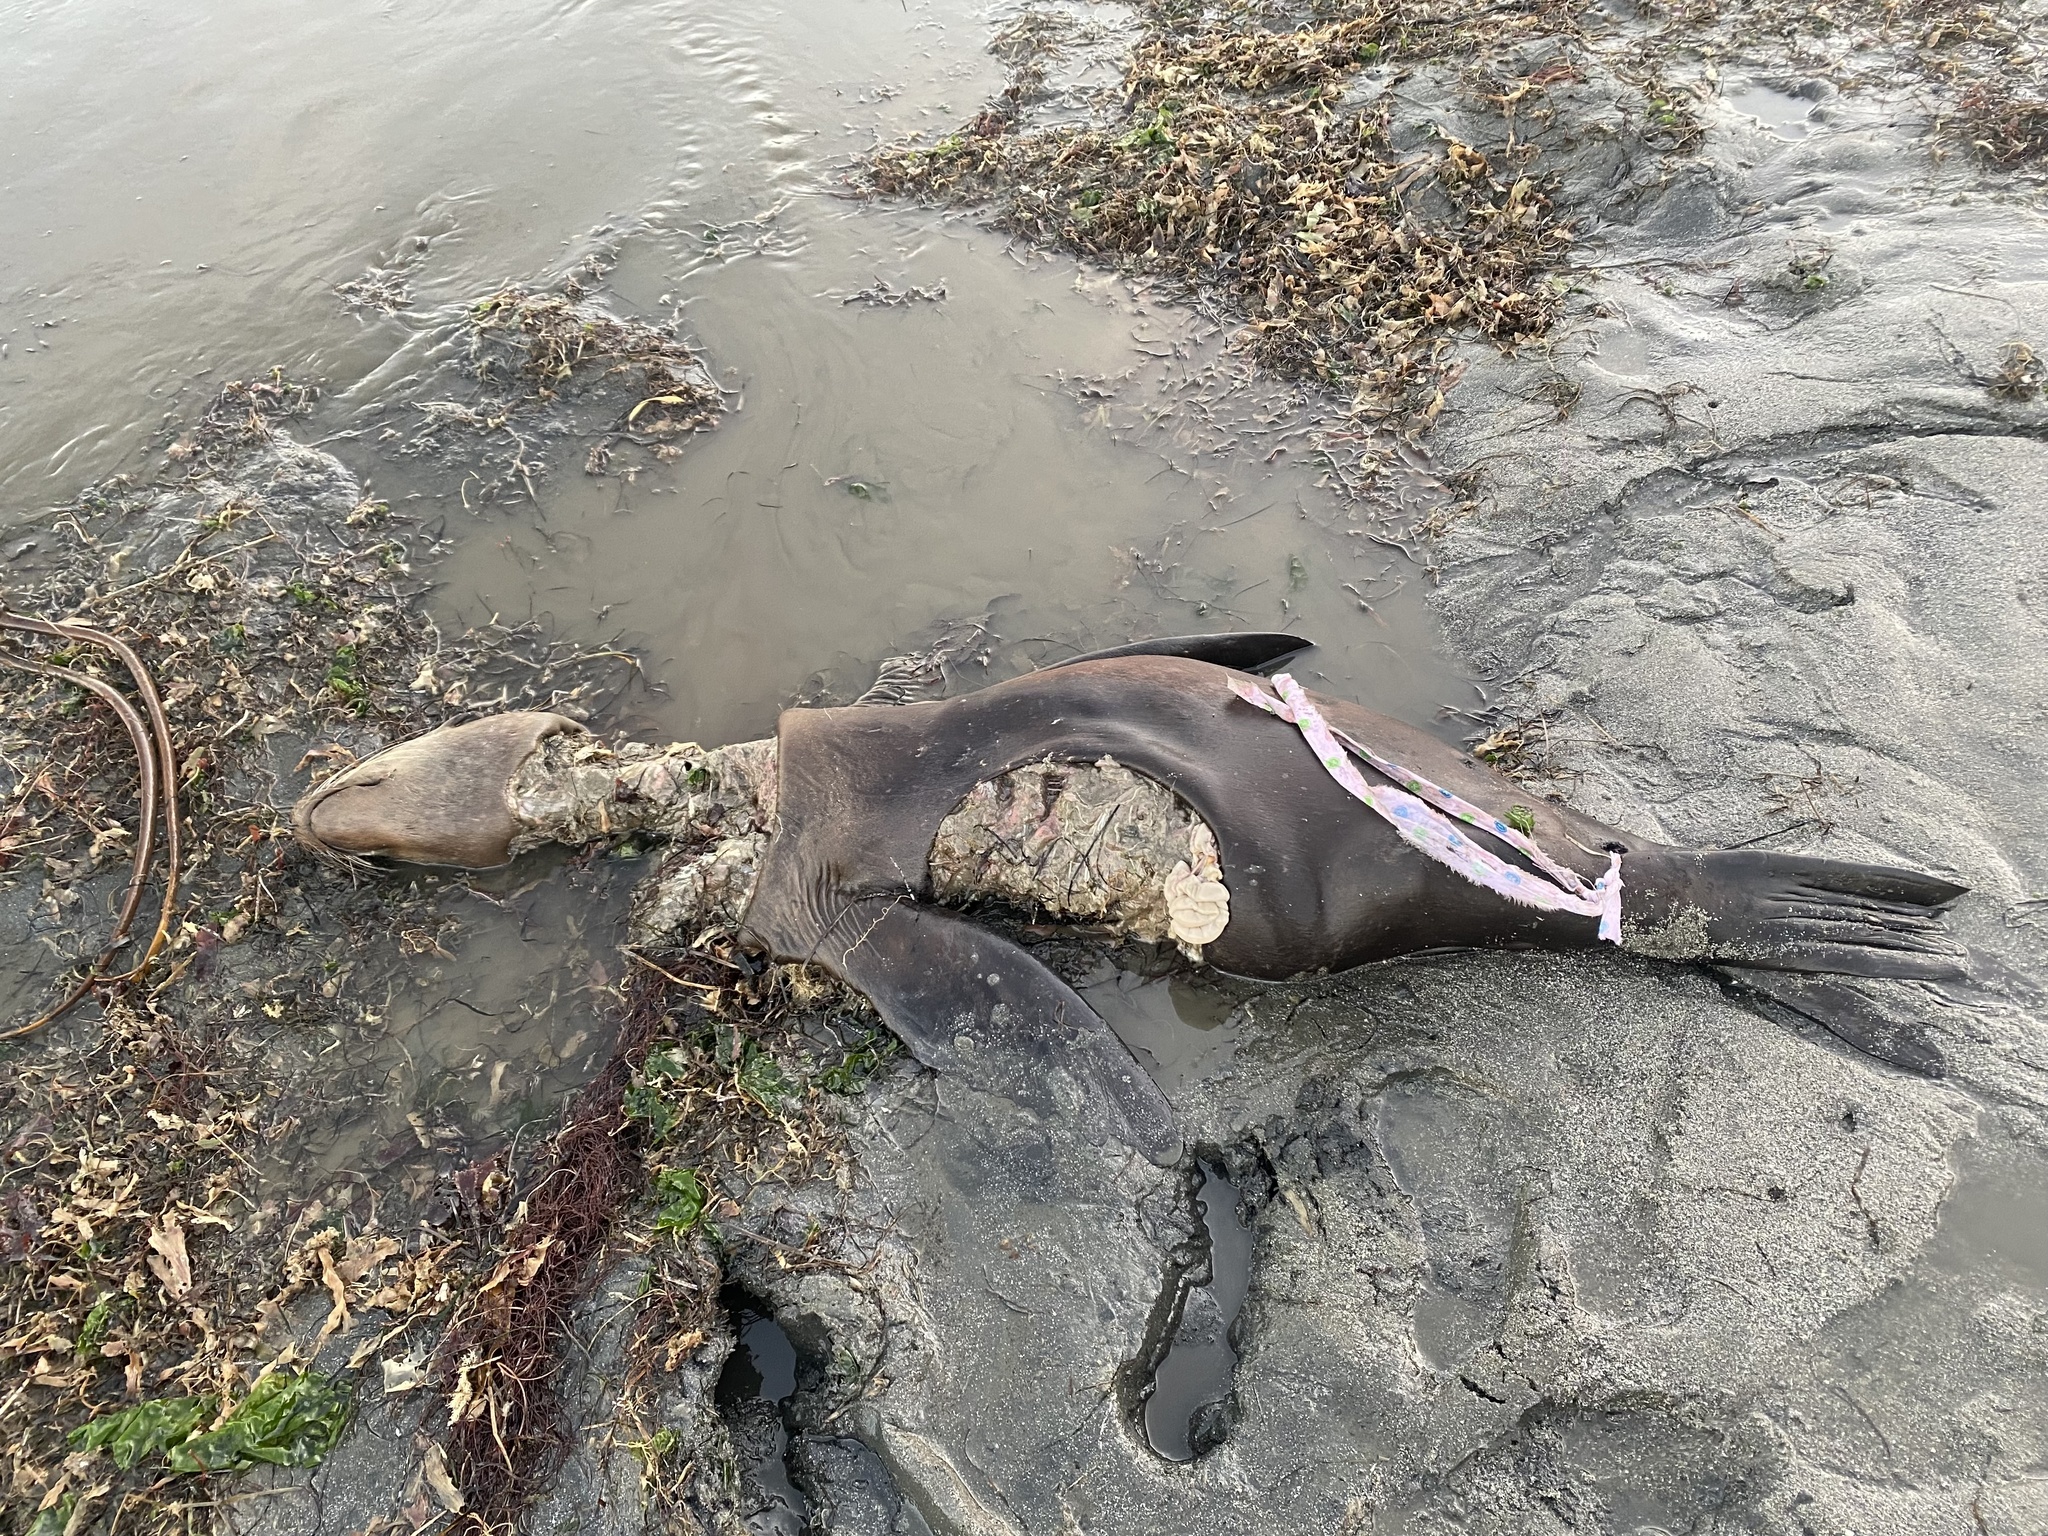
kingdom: Animalia
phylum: Chordata
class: Mammalia
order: Carnivora
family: Otariidae
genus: Zalophus
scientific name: Zalophus californianus
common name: California sea lion
